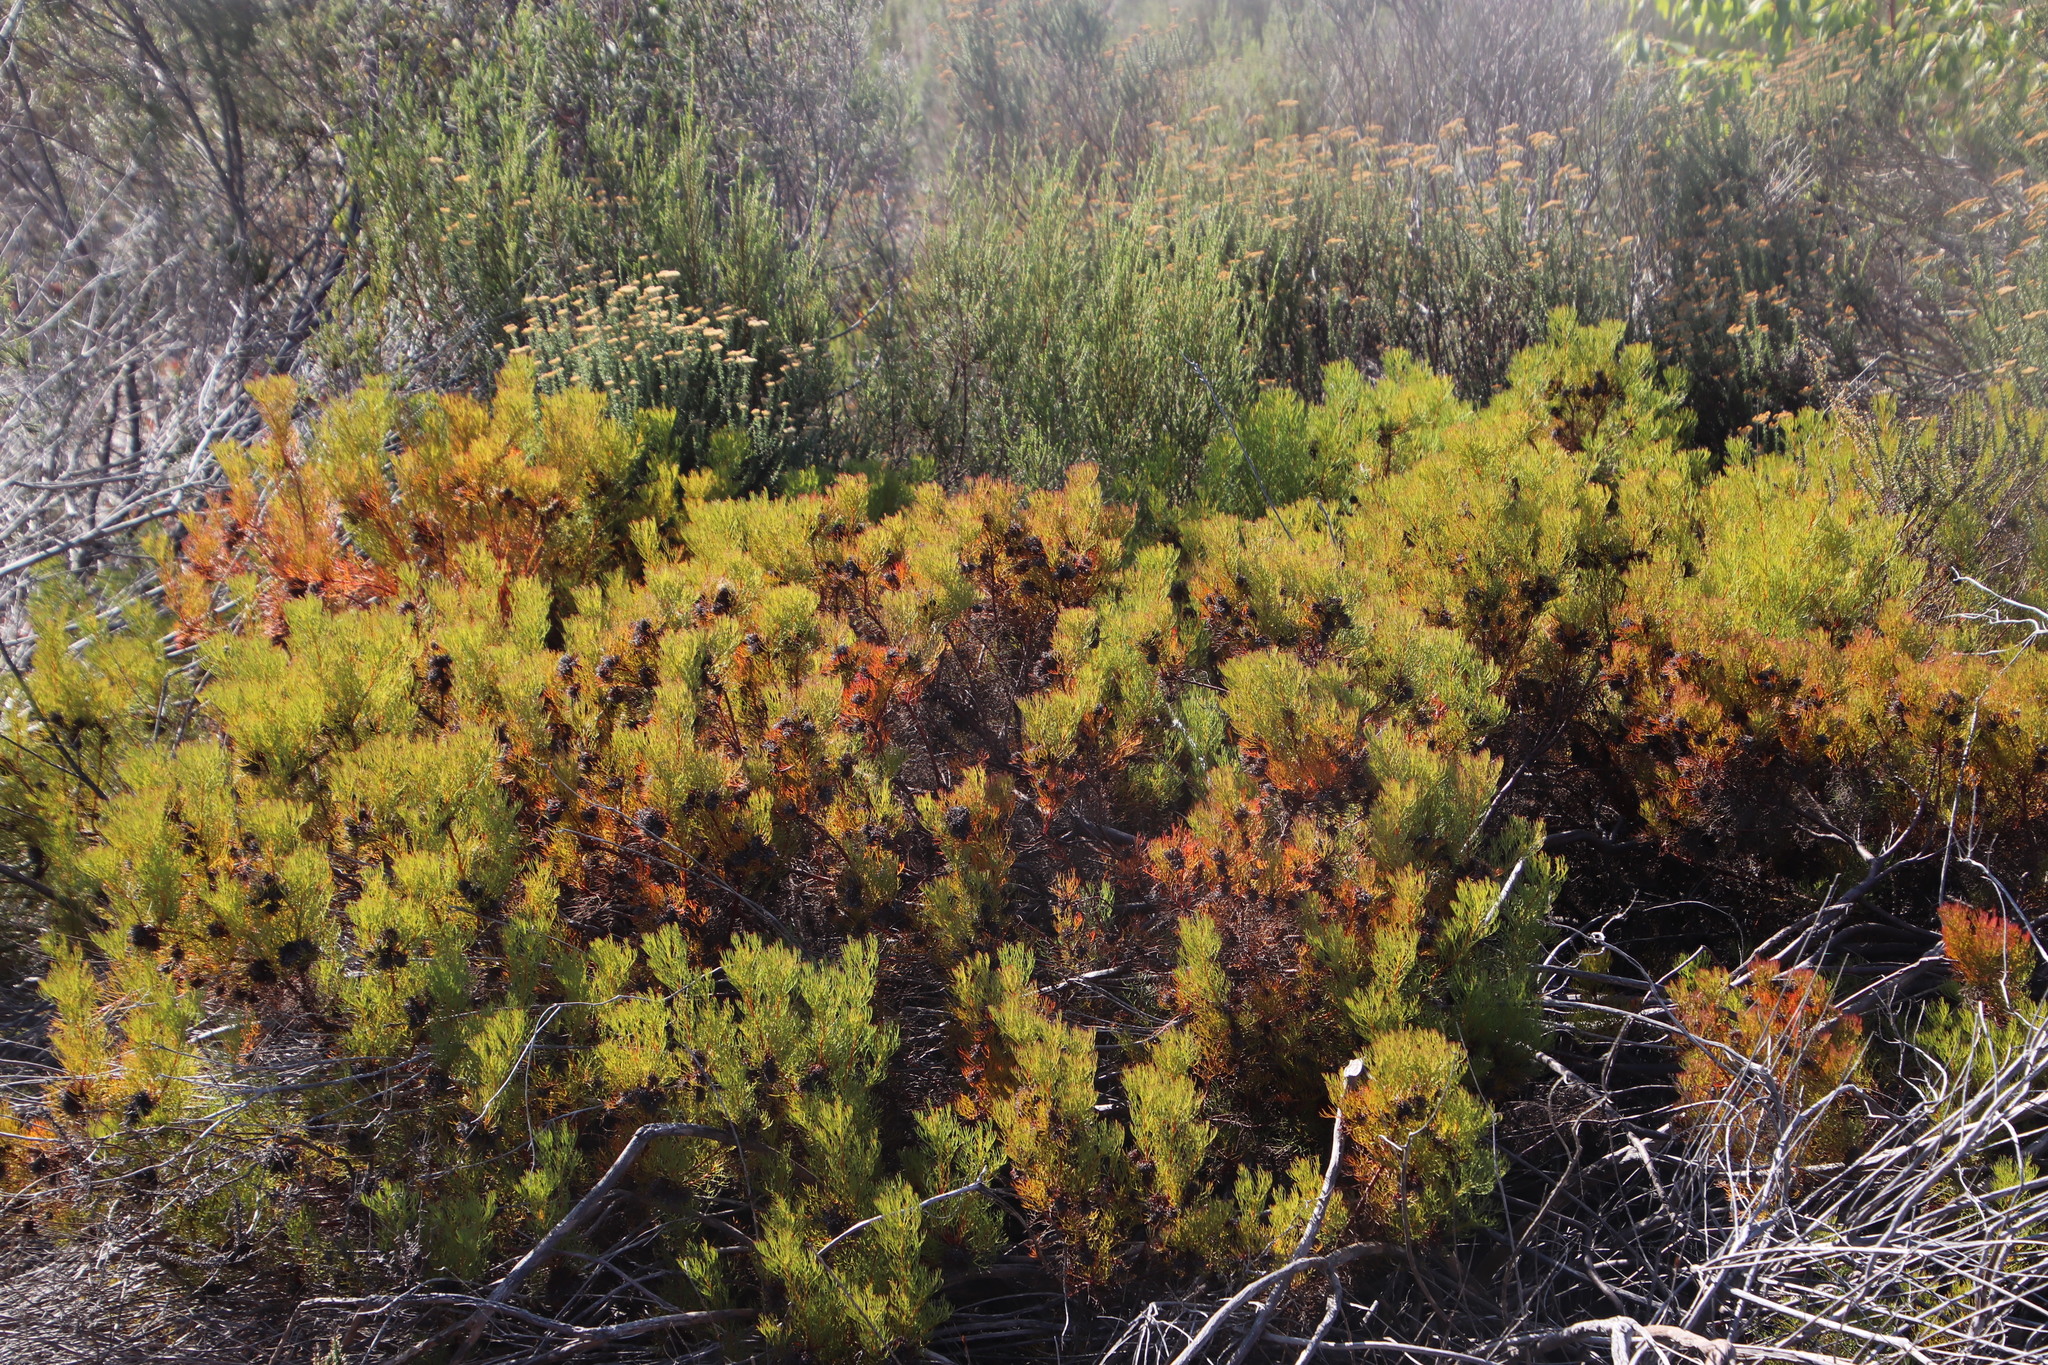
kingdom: Plantae
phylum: Tracheophyta
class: Magnoliopsida
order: Proteales
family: Proteaceae
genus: Serruria
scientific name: Serruria
